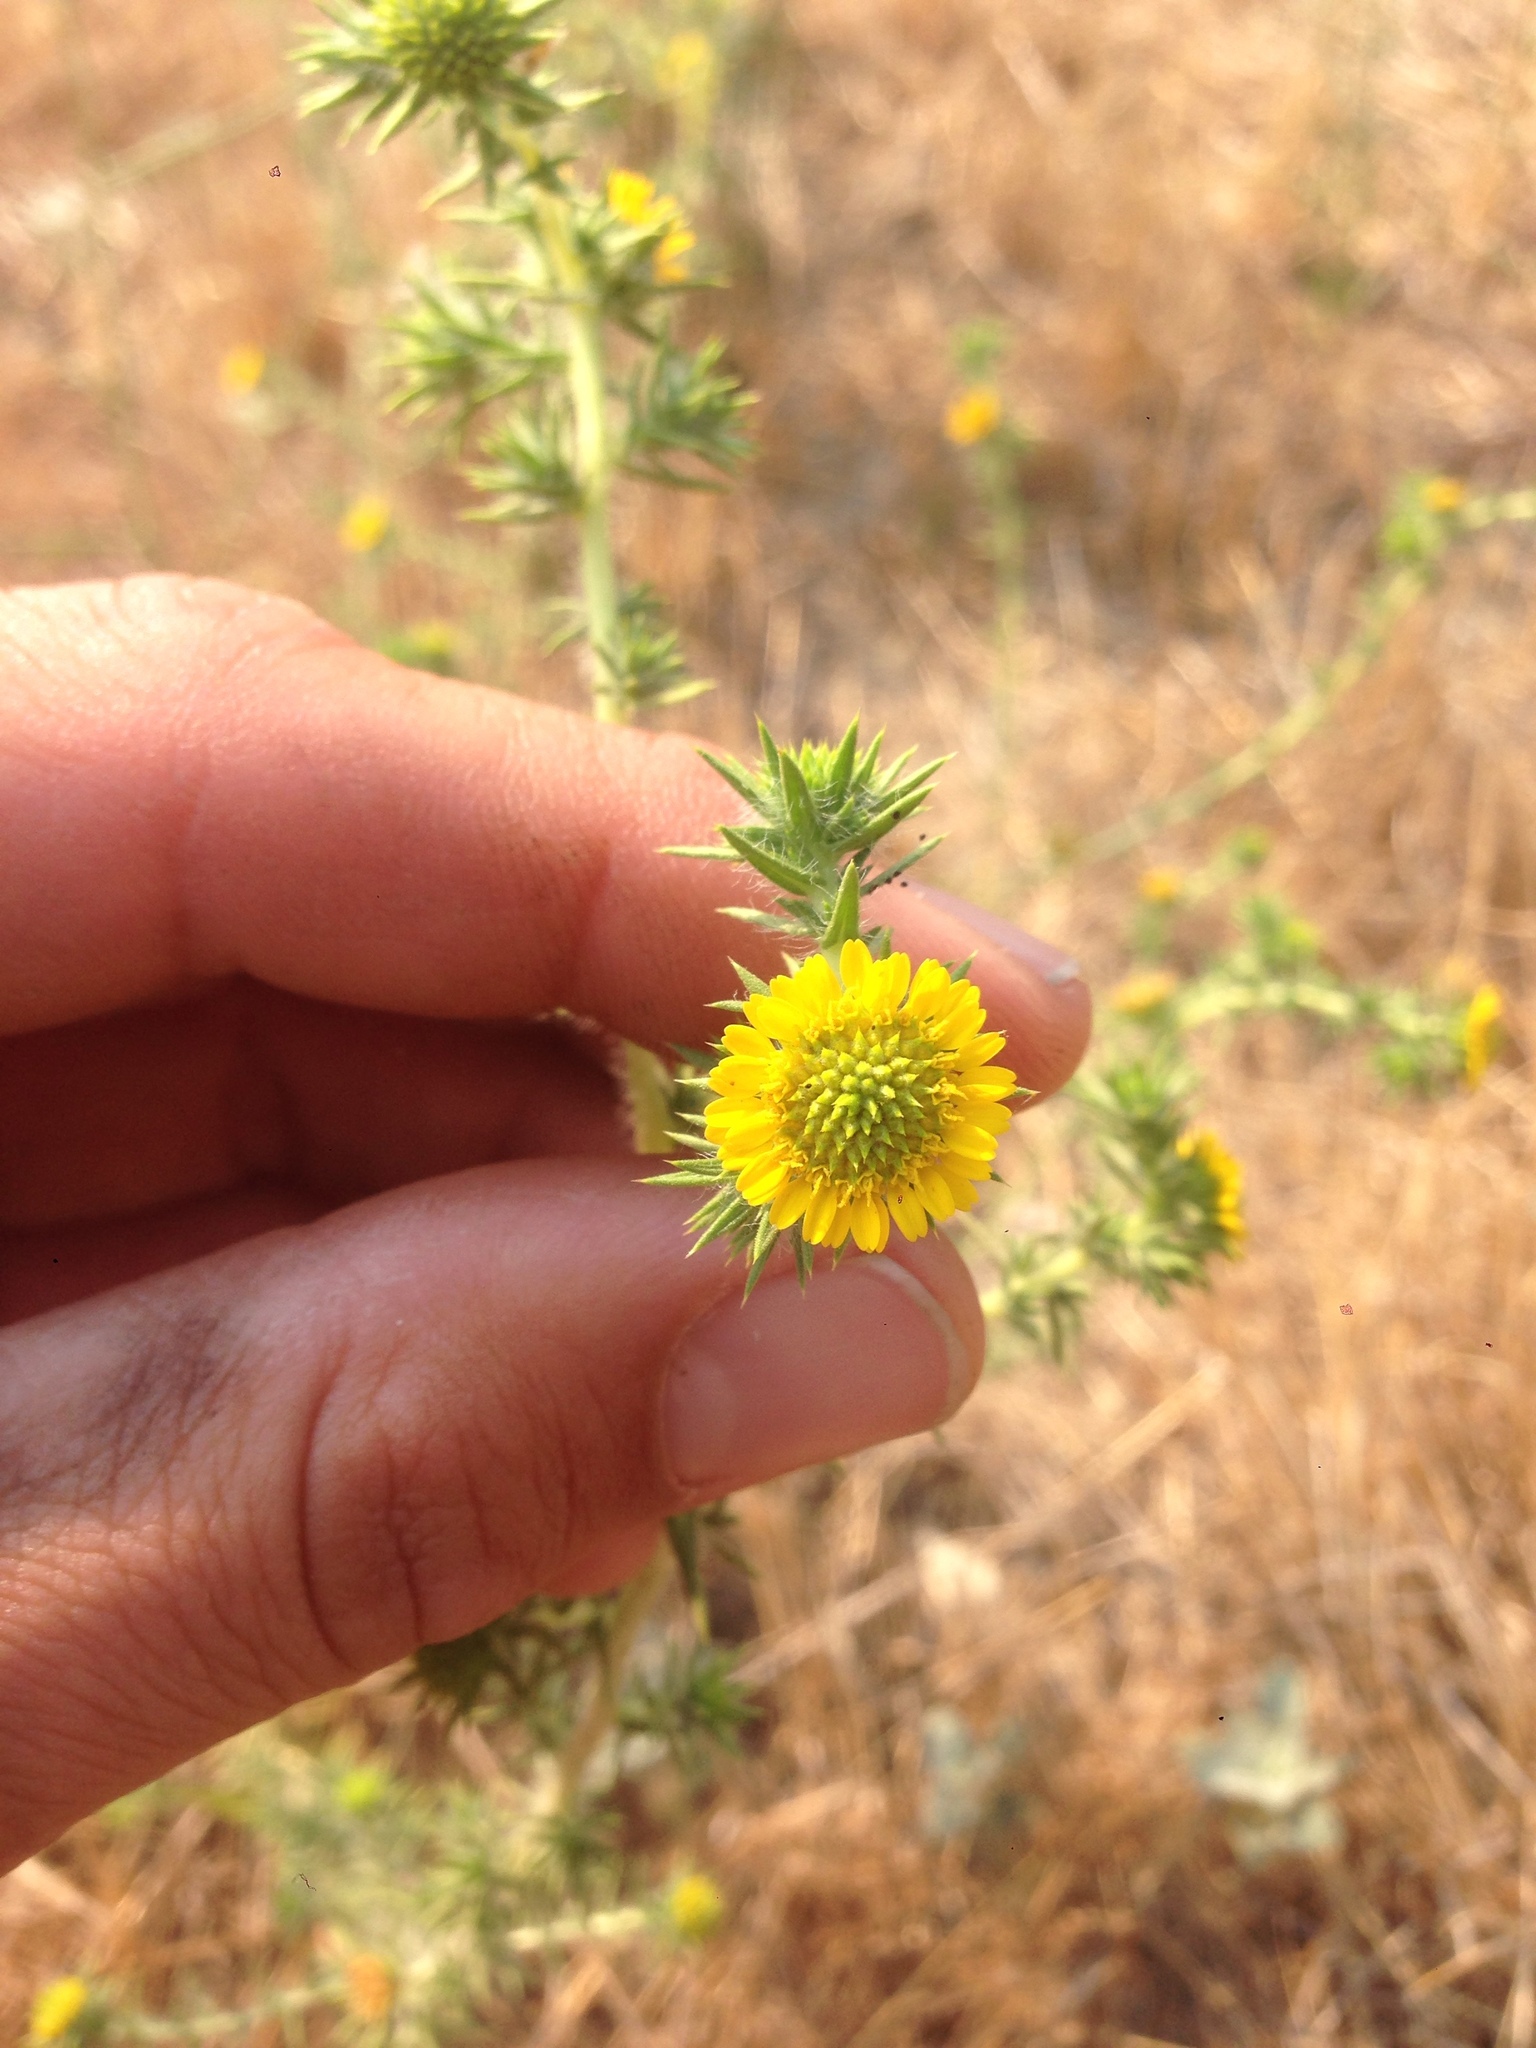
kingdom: Plantae
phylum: Tracheophyta
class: Magnoliopsida
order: Asterales
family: Asteraceae
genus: Centromadia
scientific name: Centromadia parryi
